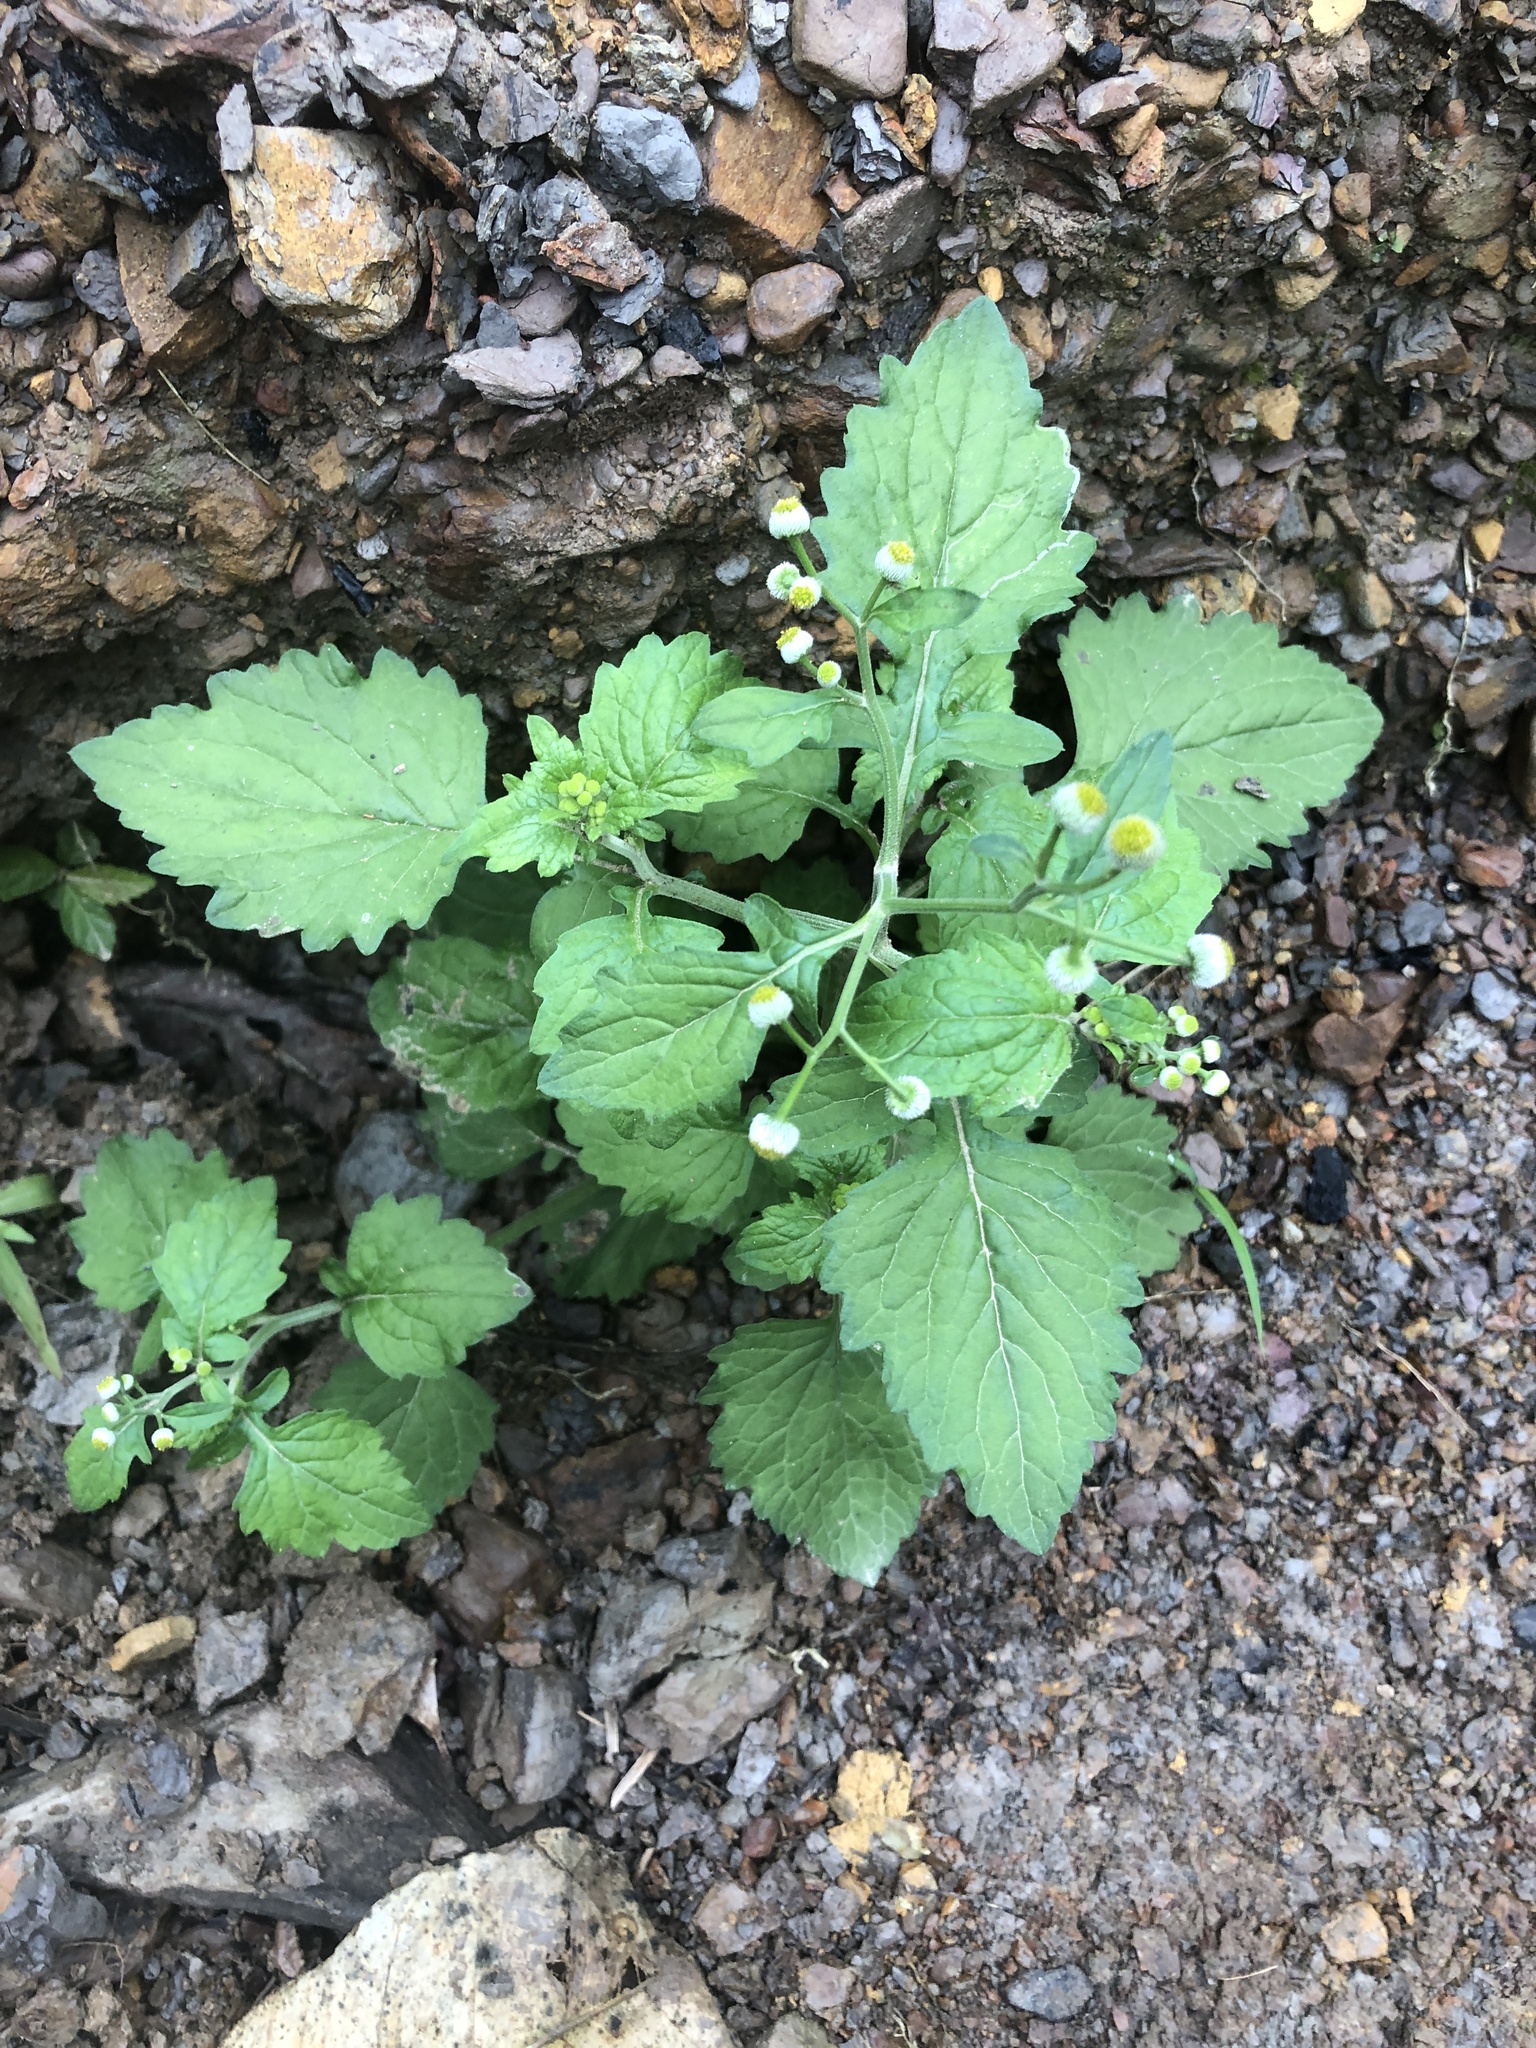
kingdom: Plantae
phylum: Tracheophyta
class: Magnoliopsida
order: Asterales
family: Asteraceae
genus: Dichrocephala
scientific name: Dichrocephala integrifolia
